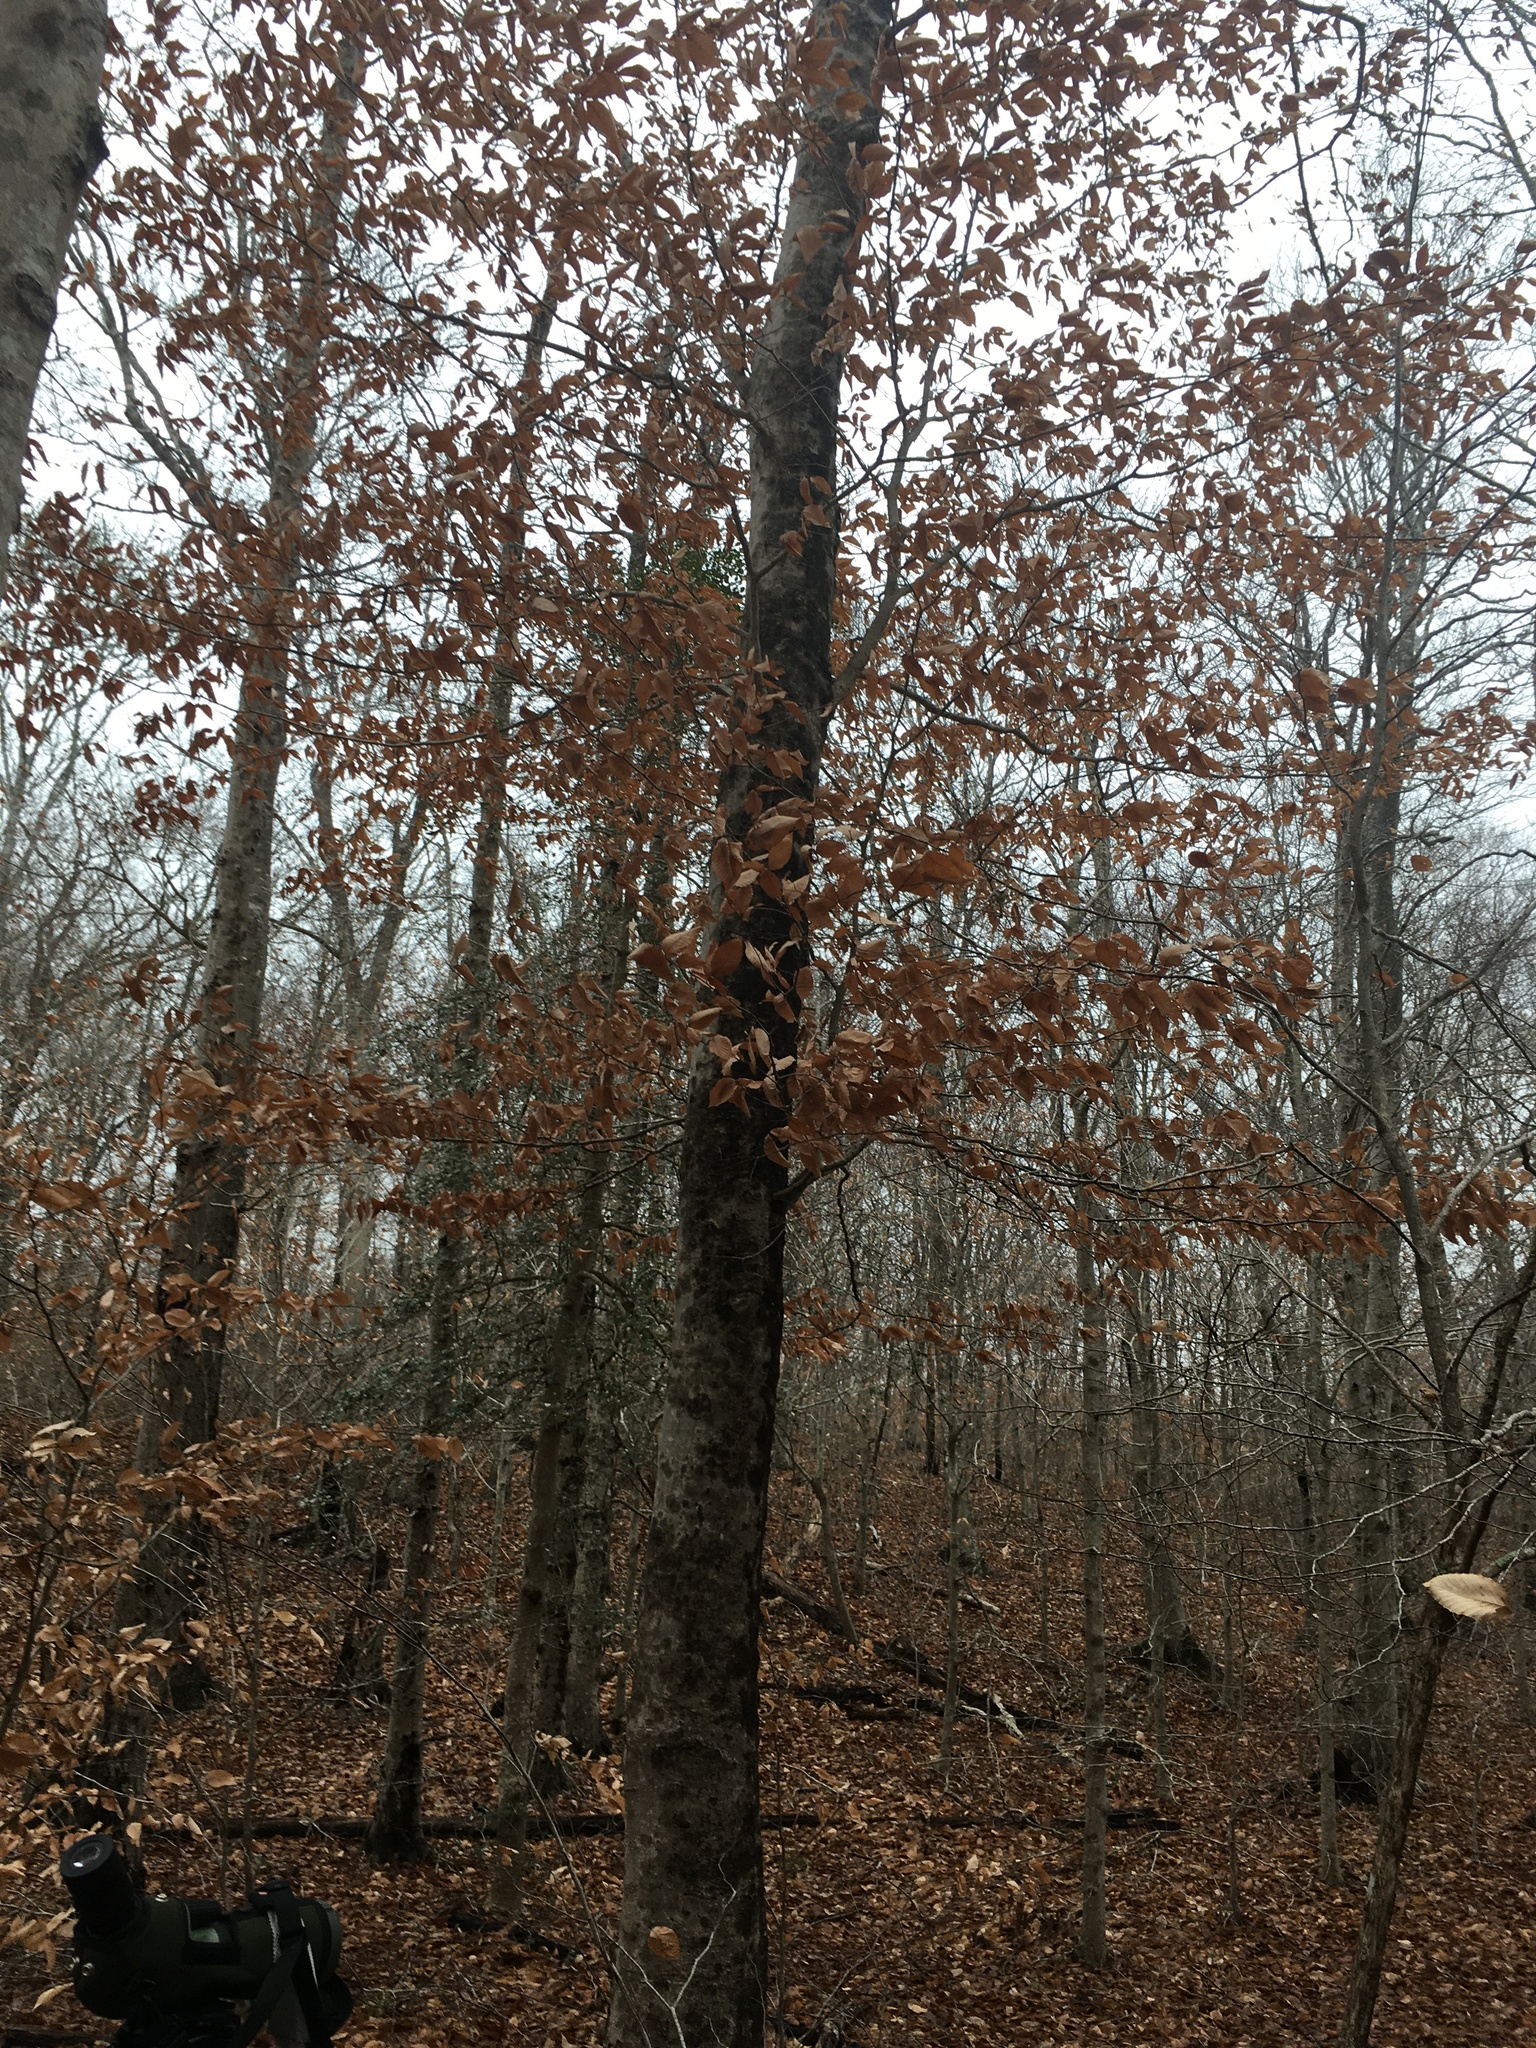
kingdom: Plantae
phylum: Tracheophyta
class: Magnoliopsida
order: Fagales
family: Fagaceae
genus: Fagus
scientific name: Fagus grandifolia
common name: American beech
